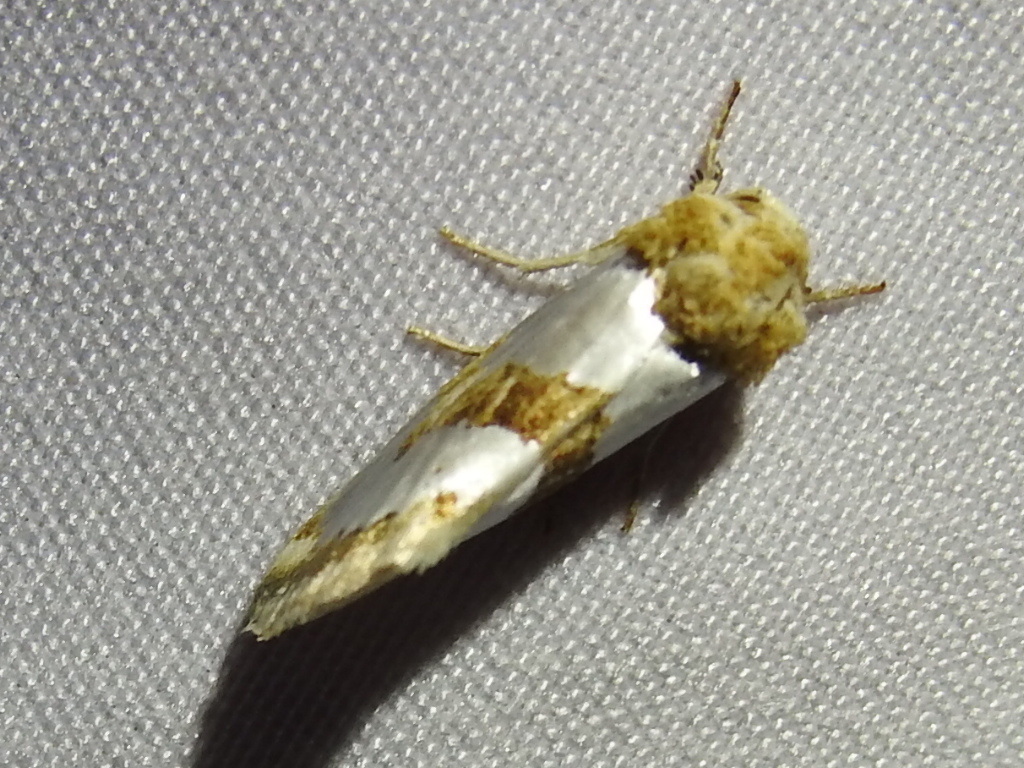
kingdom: Animalia
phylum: Arthropoda
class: Insecta
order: Lepidoptera
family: Noctuidae
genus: Schinia
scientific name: Schinia chrysellus
